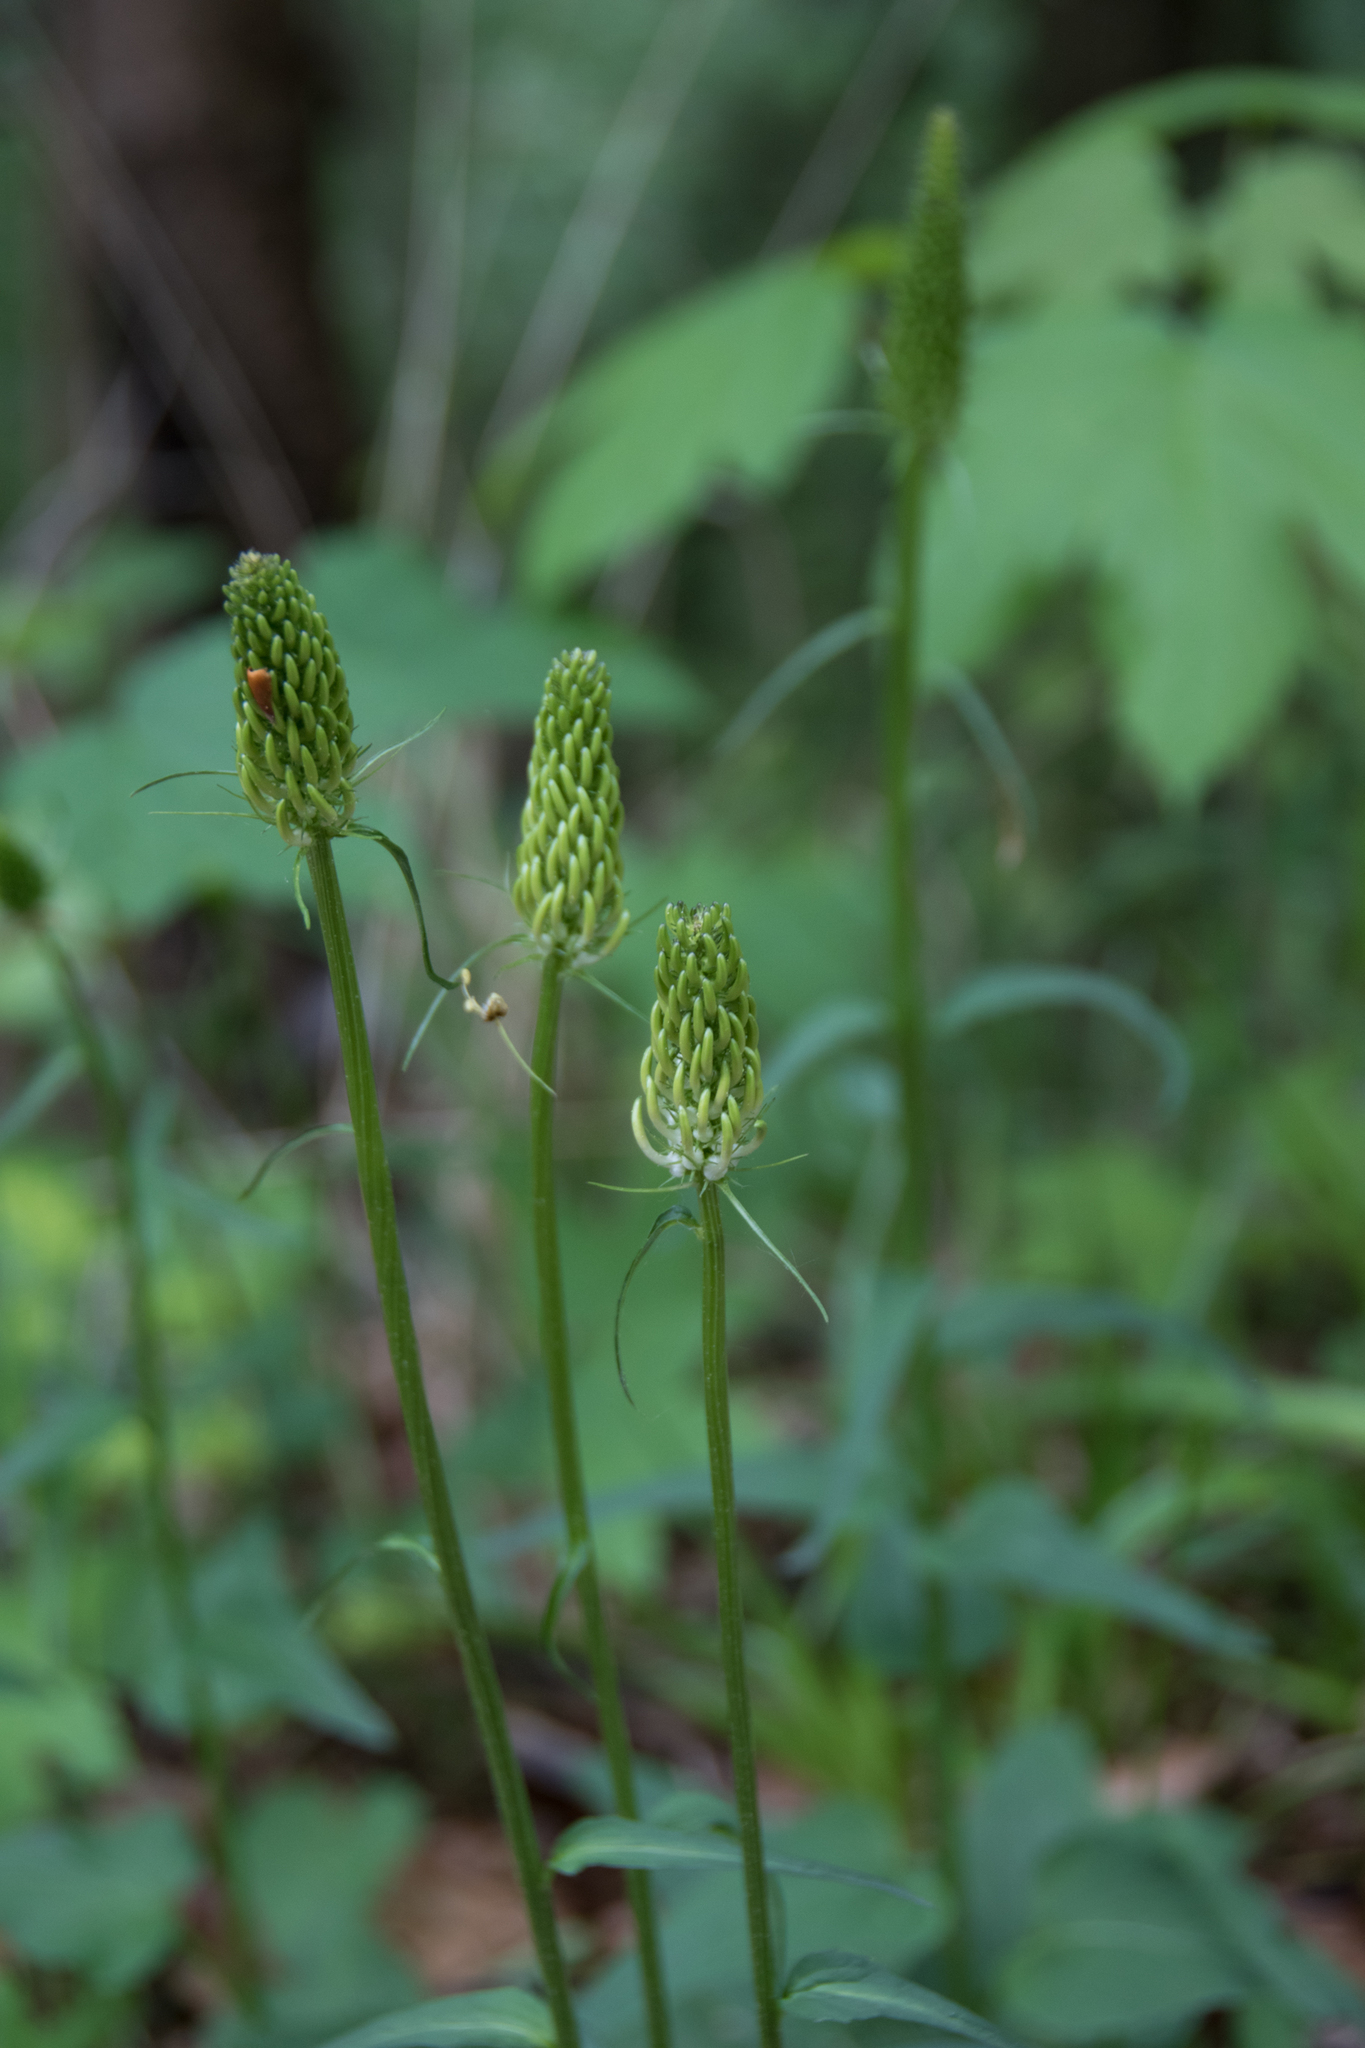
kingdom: Plantae
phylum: Tracheophyta
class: Magnoliopsida
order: Asterales
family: Campanulaceae
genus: Phyteuma
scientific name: Phyteuma spicatum
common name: Spiked rampion
